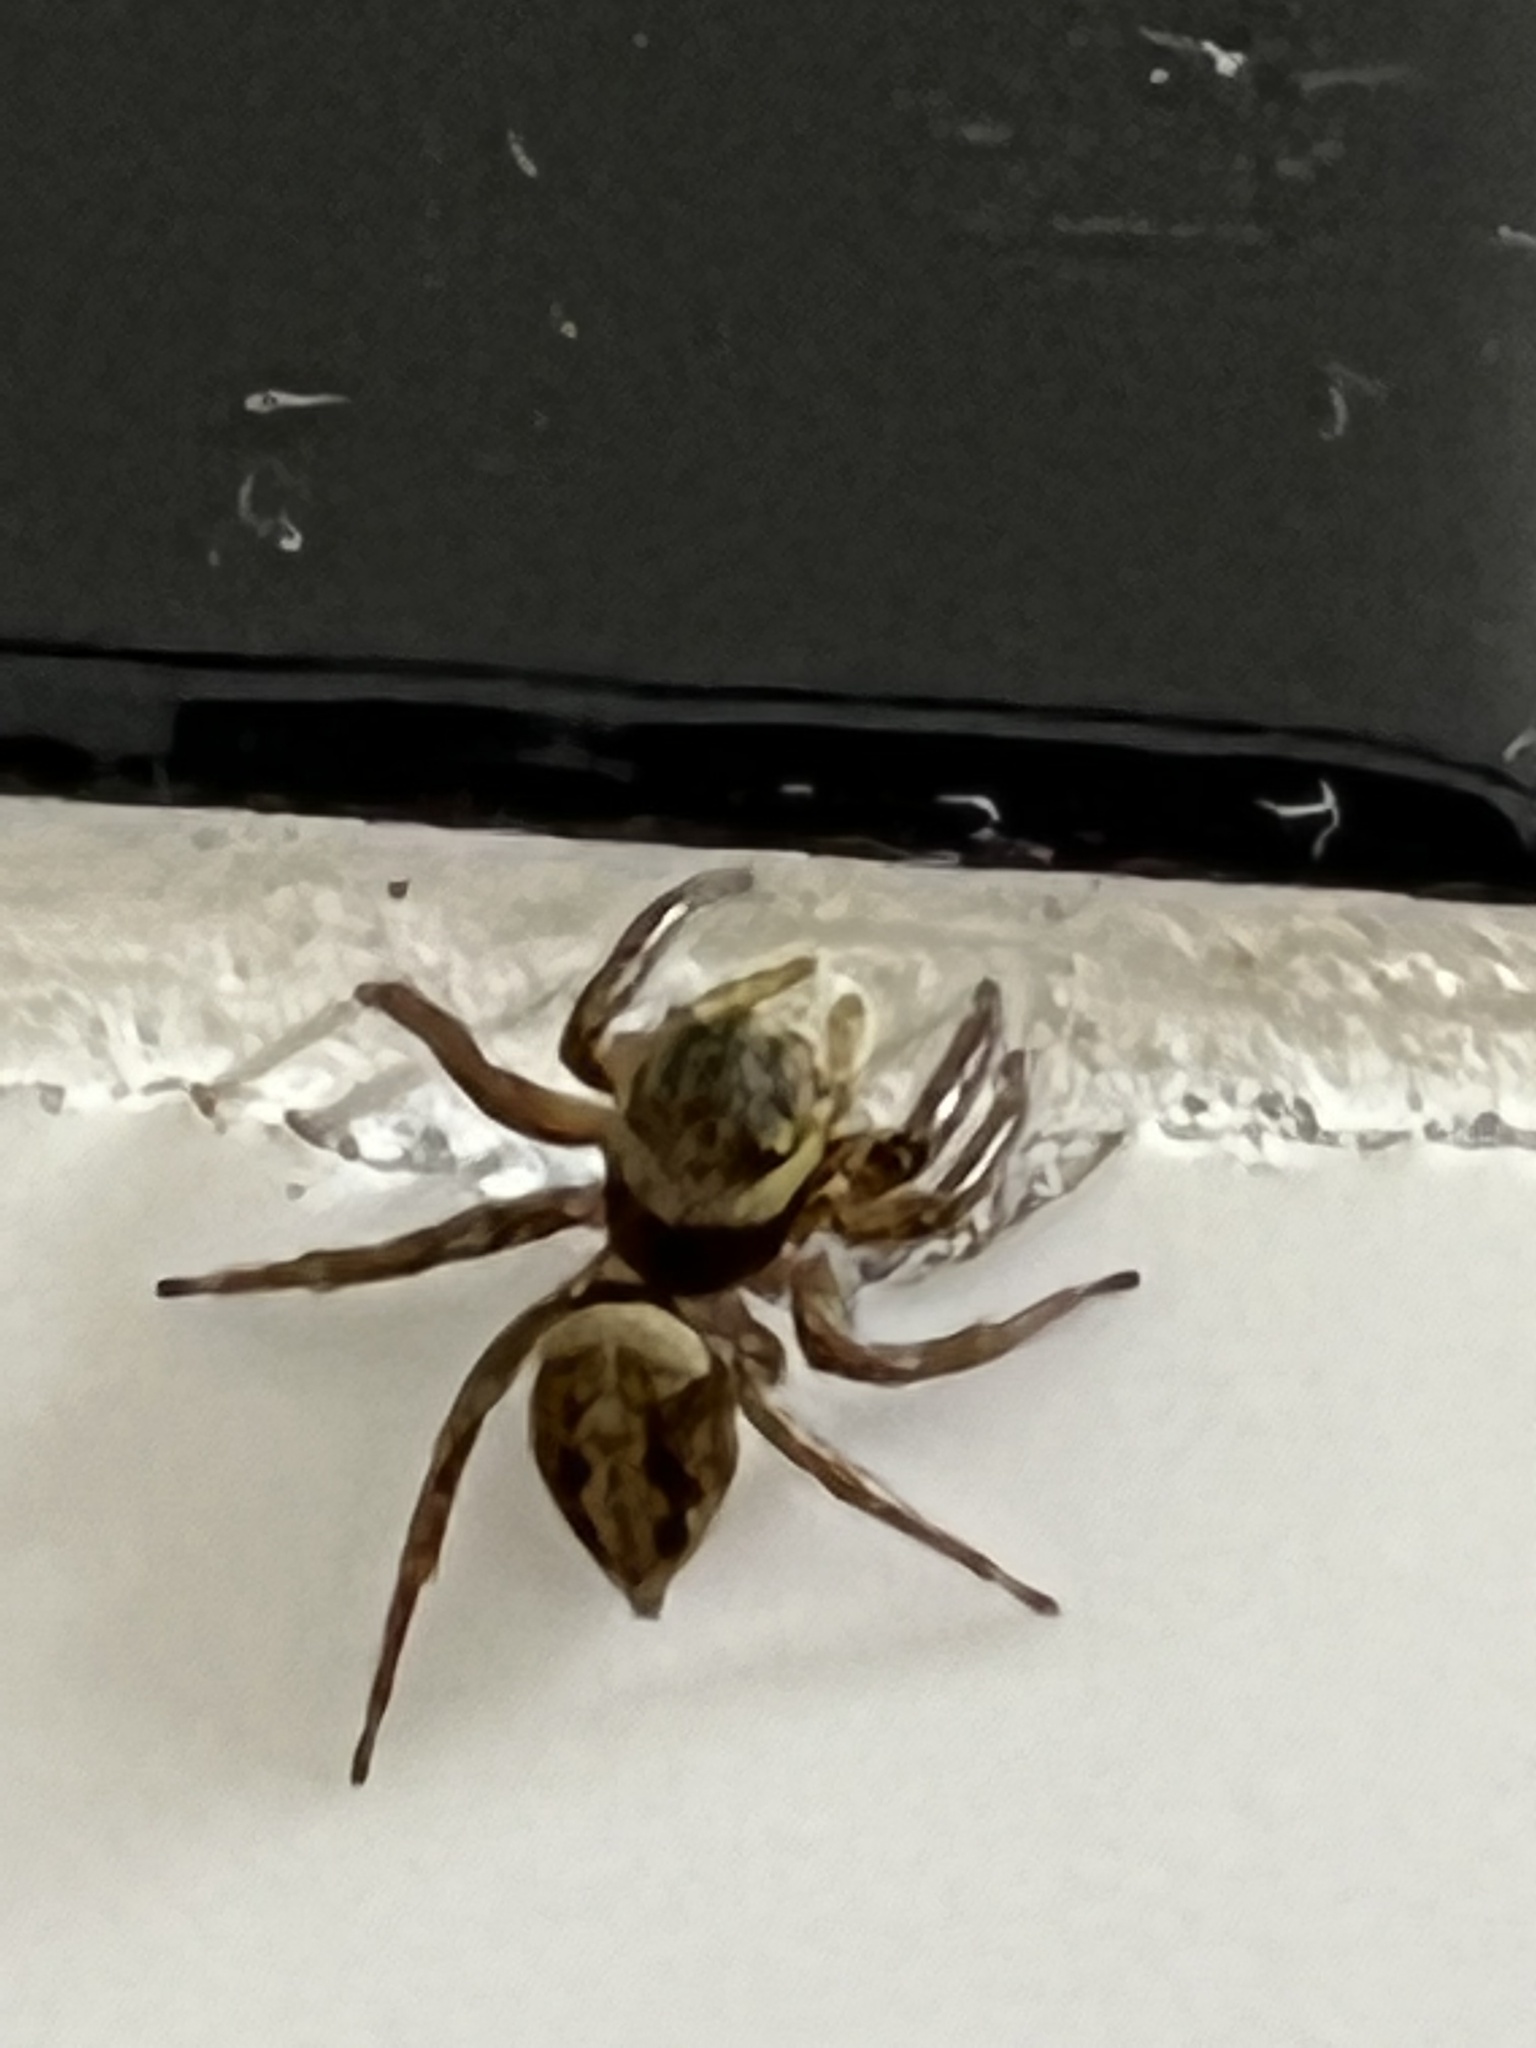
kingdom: Animalia
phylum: Arthropoda
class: Arachnida
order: Araneae
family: Salticidae
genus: Hasarius
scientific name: Hasarius adansoni
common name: Jumping spider
